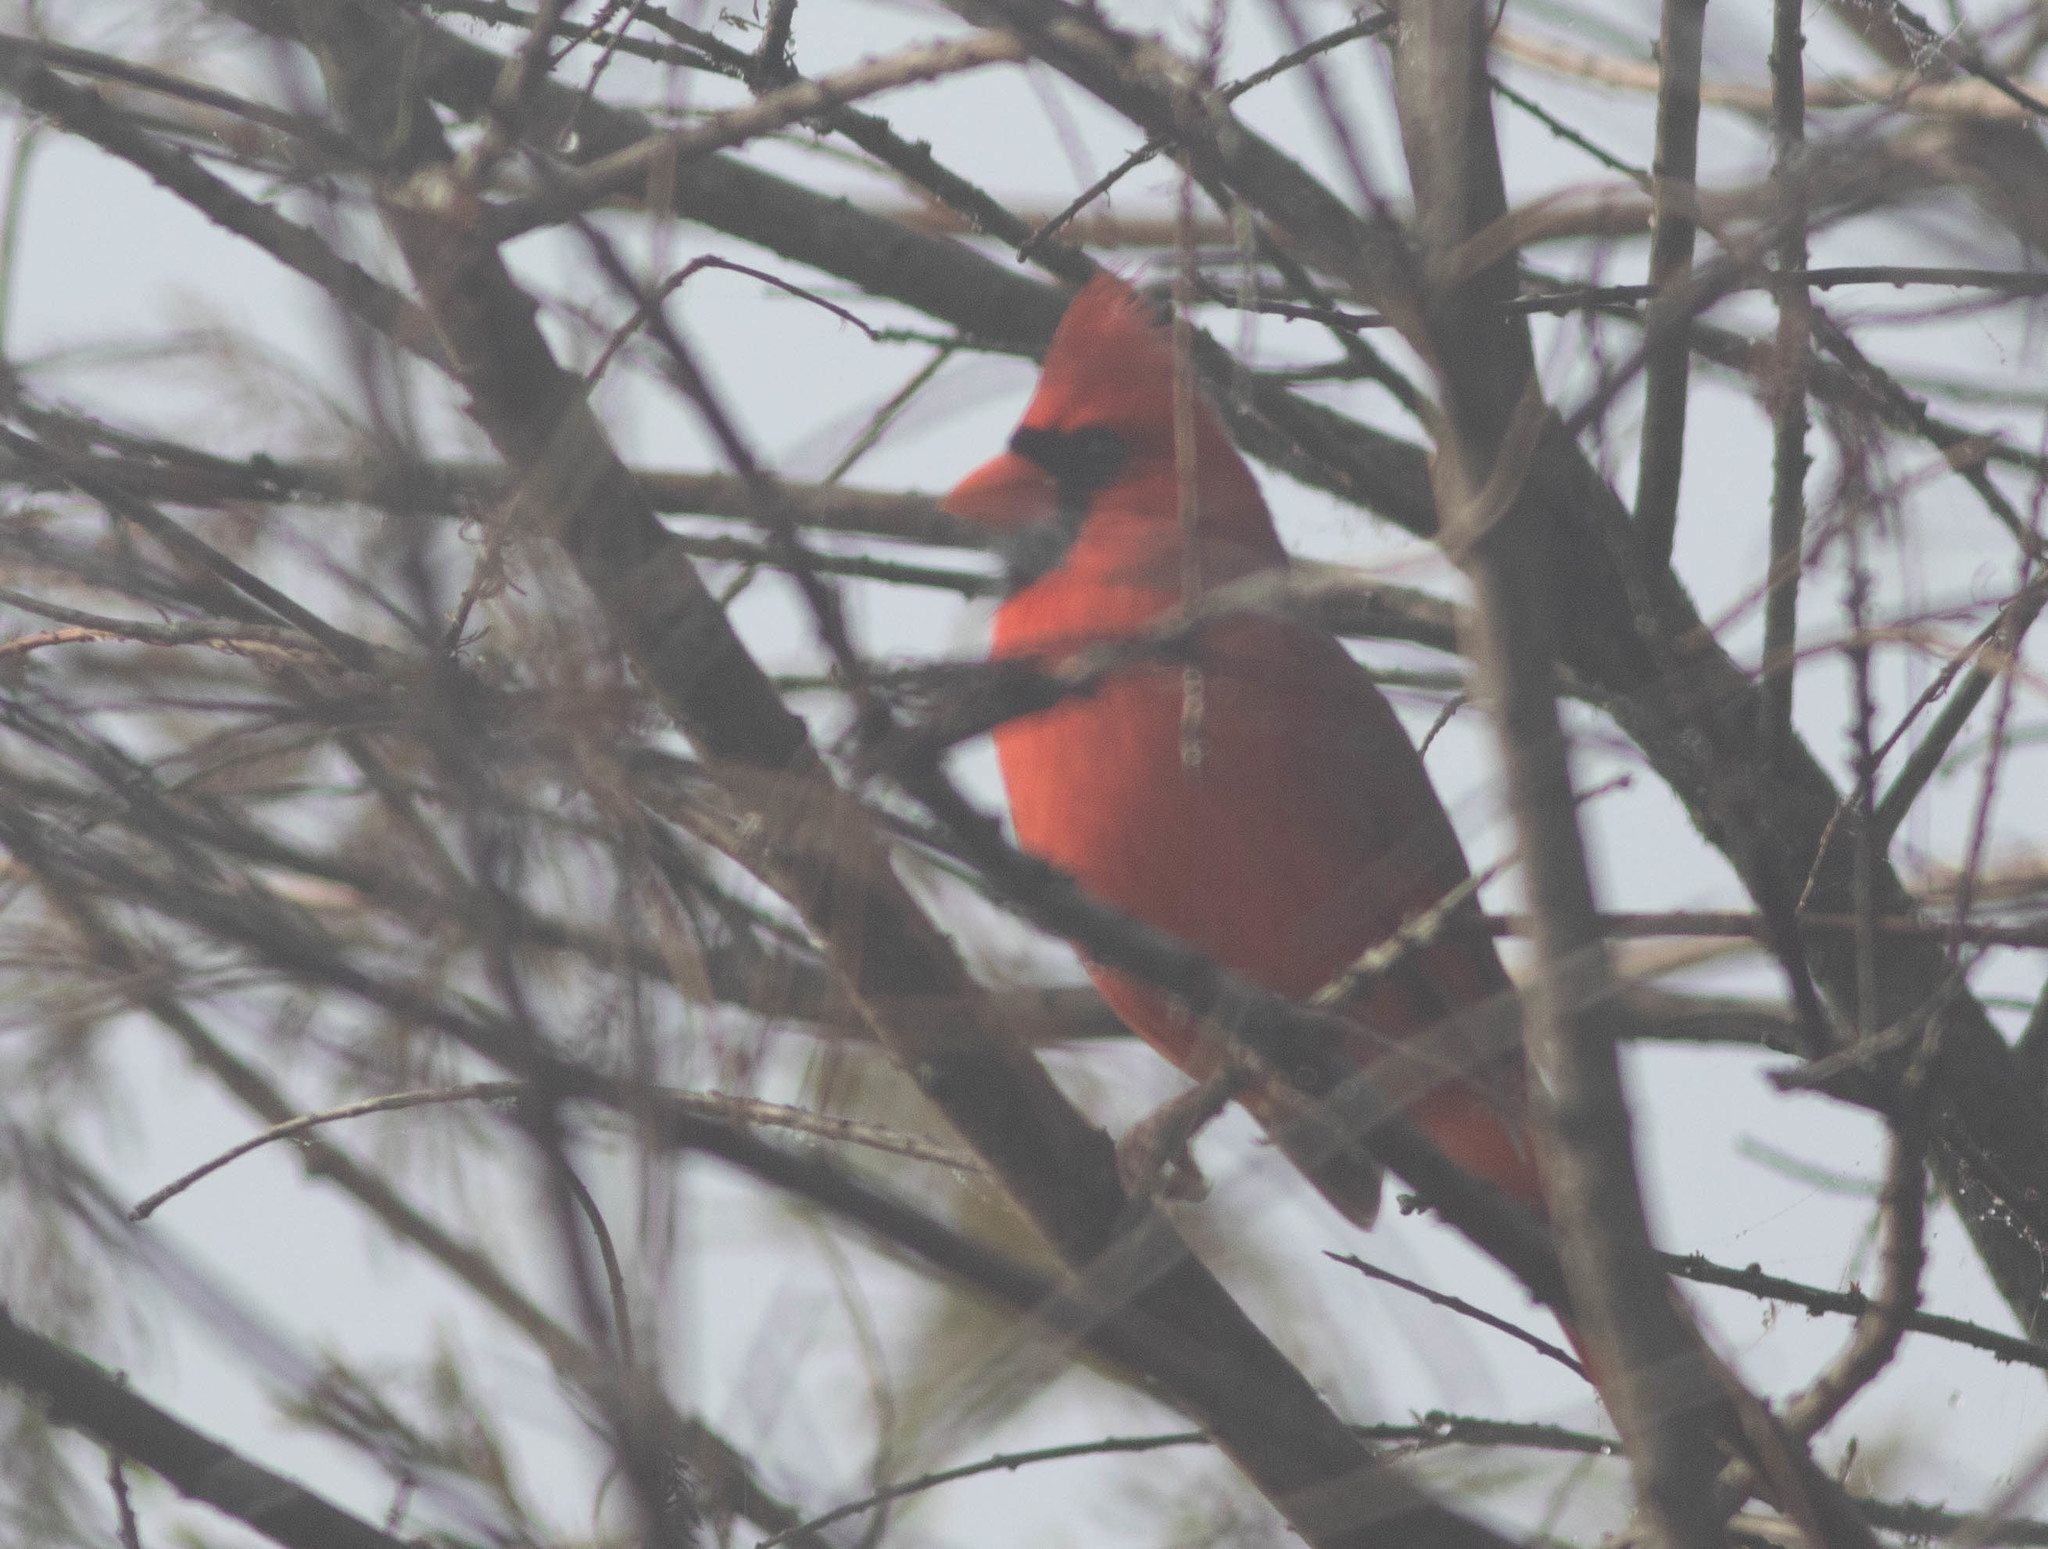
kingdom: Animalia
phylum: Chordata
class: Aves
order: Passeriformes
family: Cardinalidae
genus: Cardinalis
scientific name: Cardinalis cardinalis
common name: Northern cardinal
